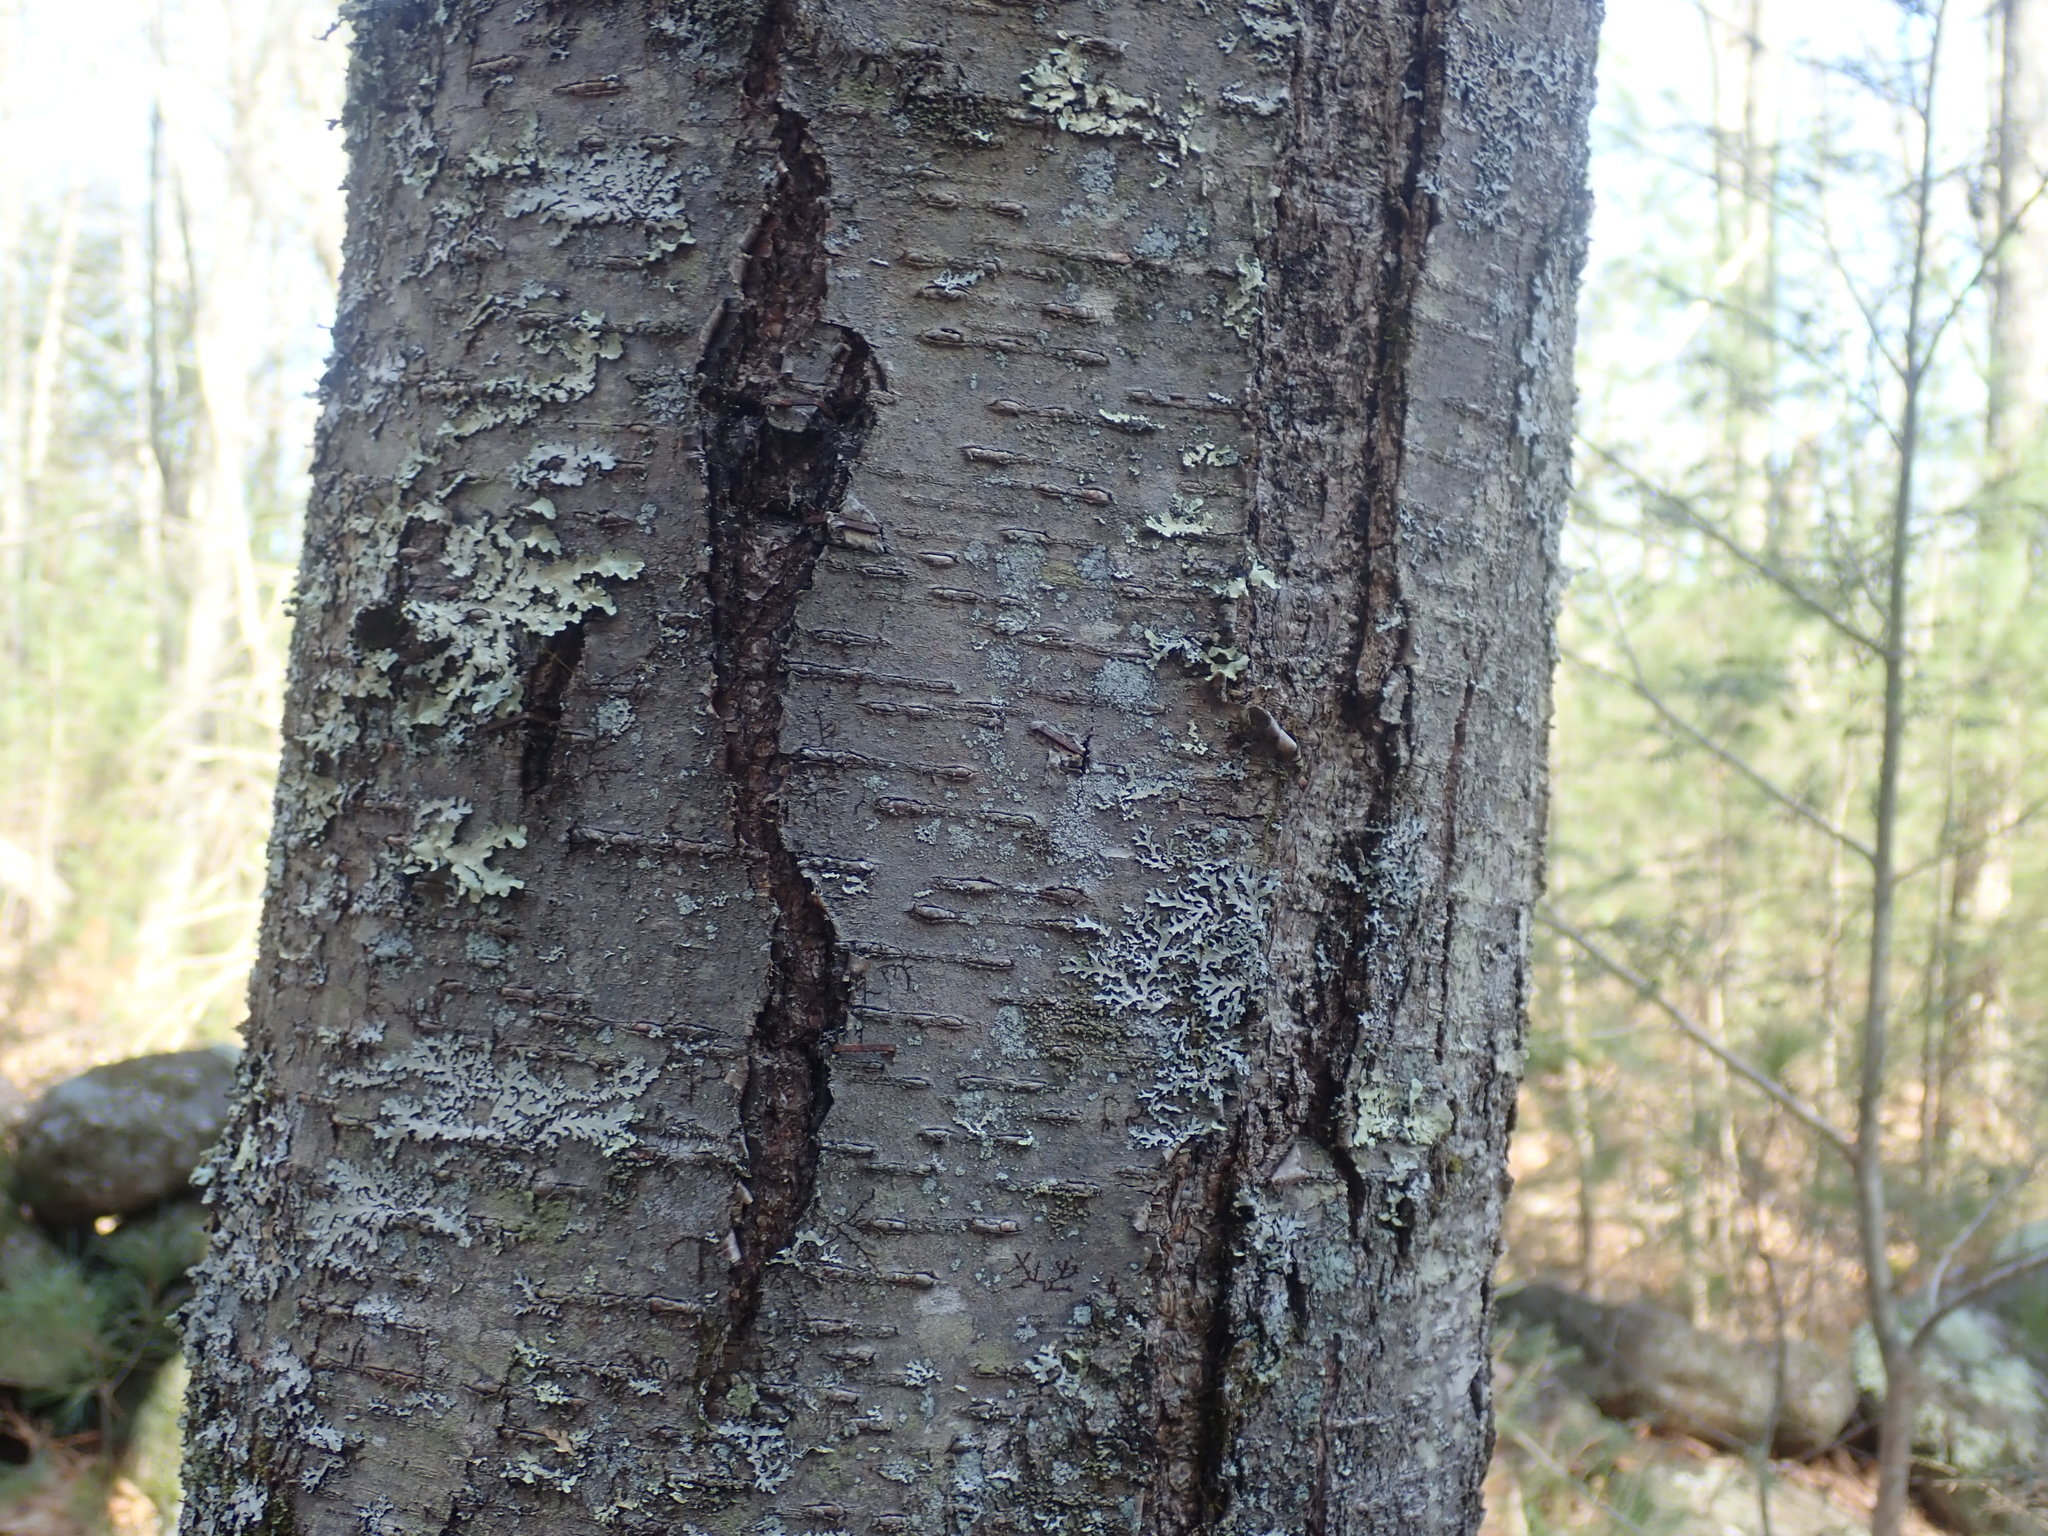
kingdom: Plantae
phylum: Tracheophyta
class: Magnoliopsida
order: Fagales
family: Betulaceae
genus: Betula
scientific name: Betula lenta
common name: Black birch
